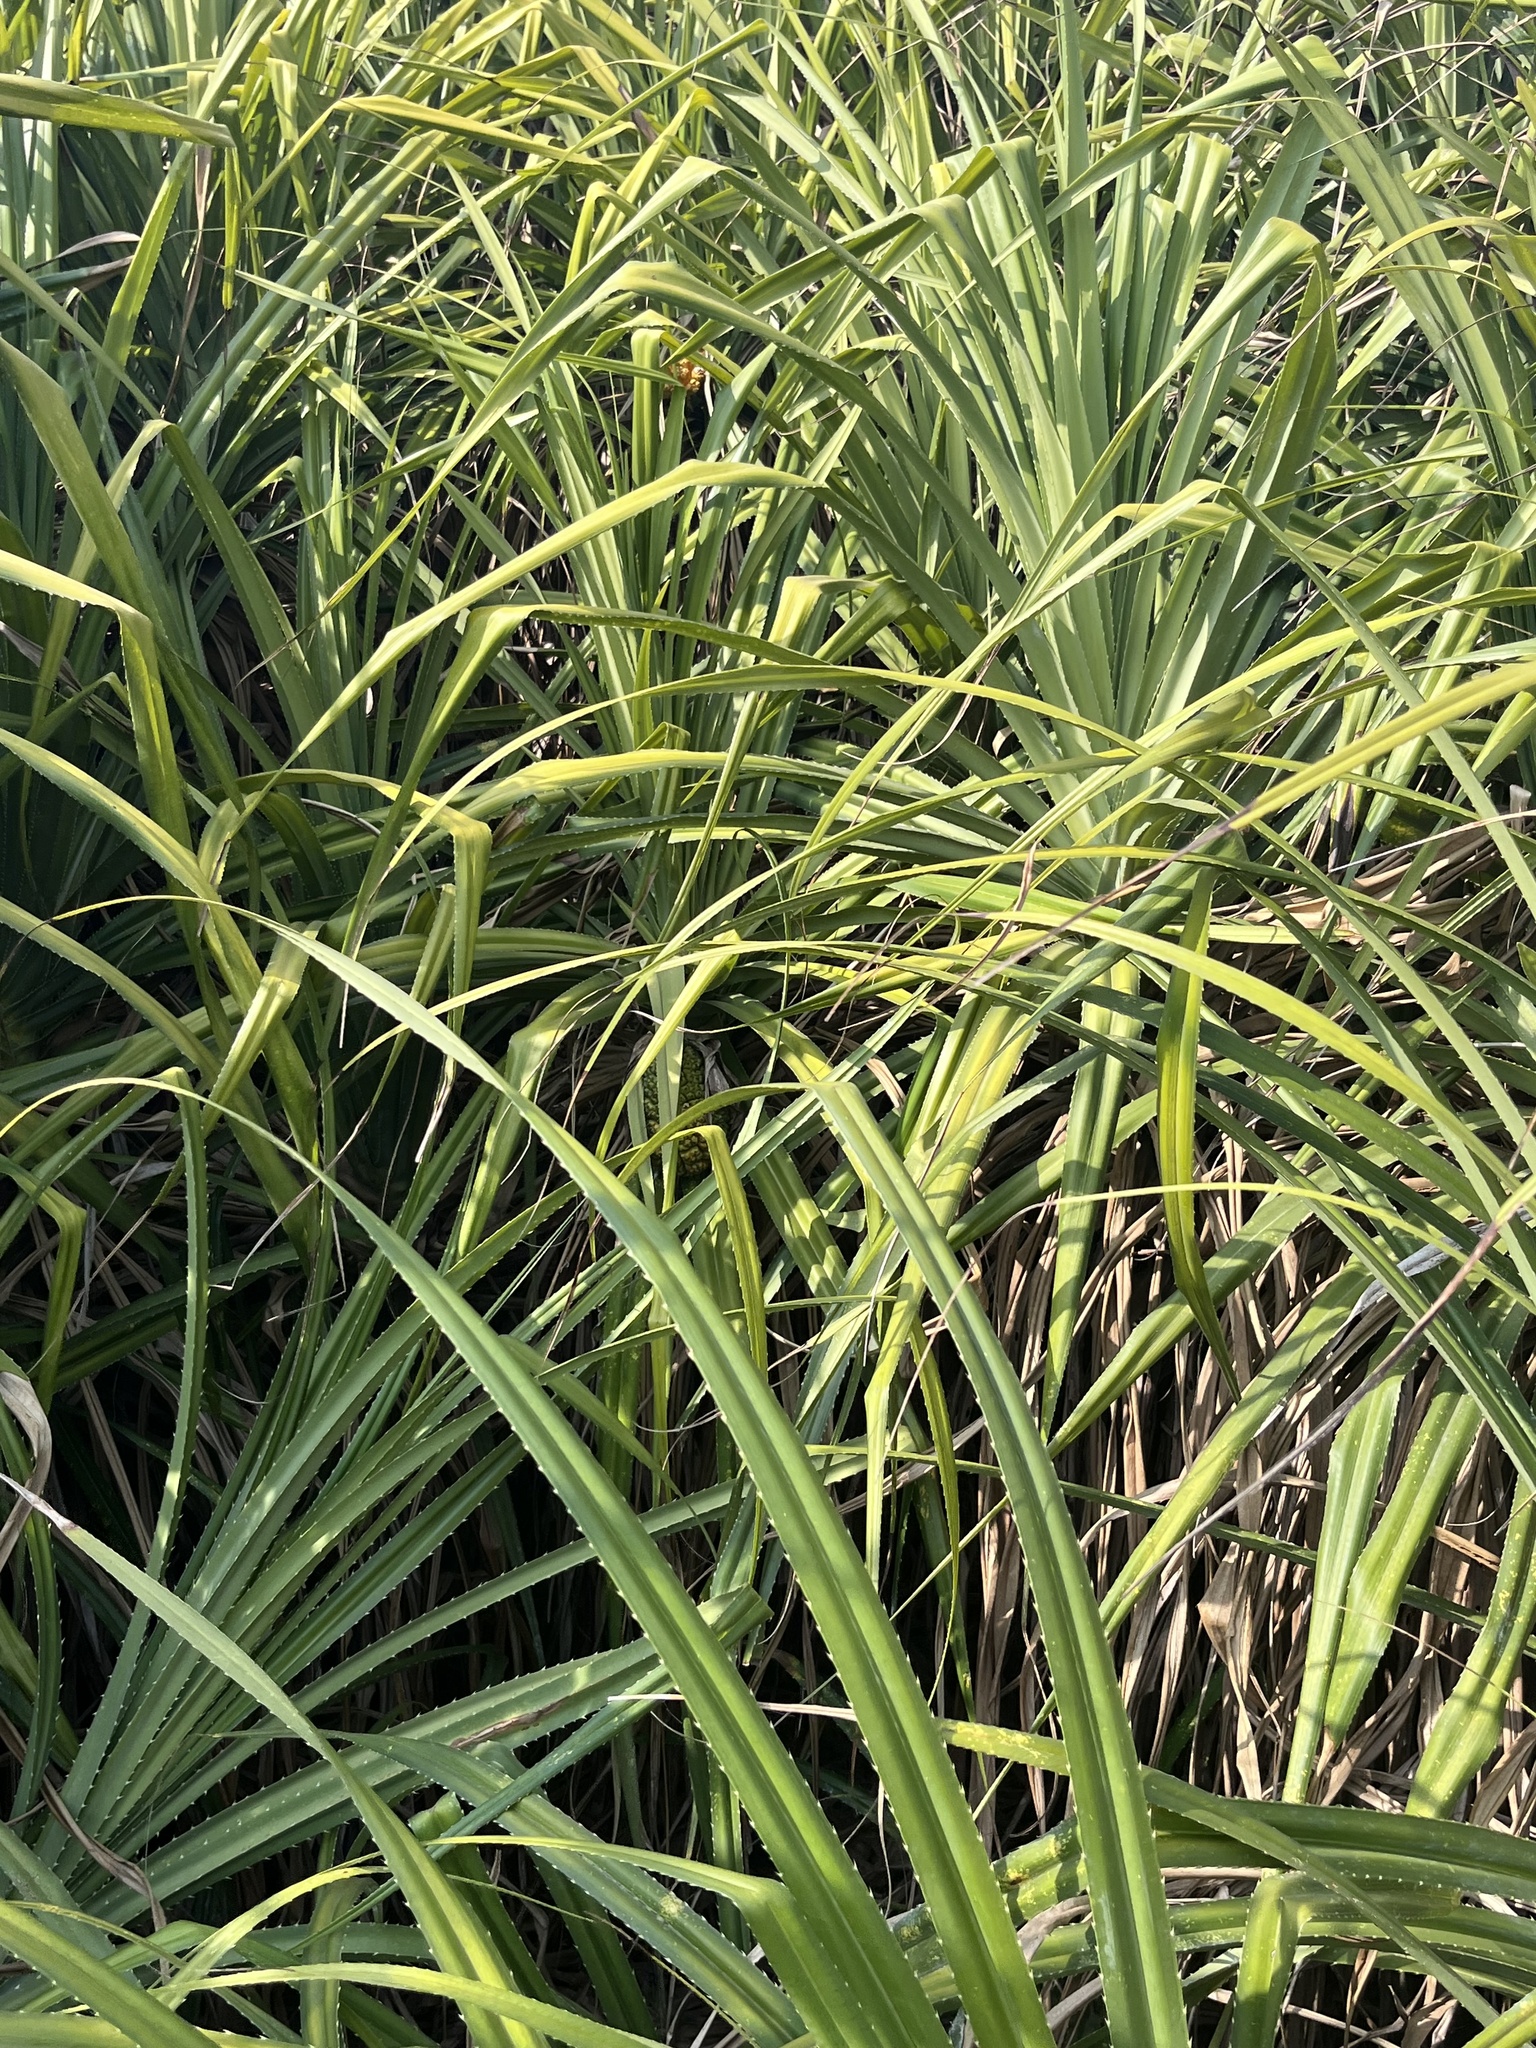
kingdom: Plantae
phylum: Tracheophyta
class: Liliopsida
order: Pandanales
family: Pandanaceae
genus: Pandanus
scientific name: Pandanus odorifer
